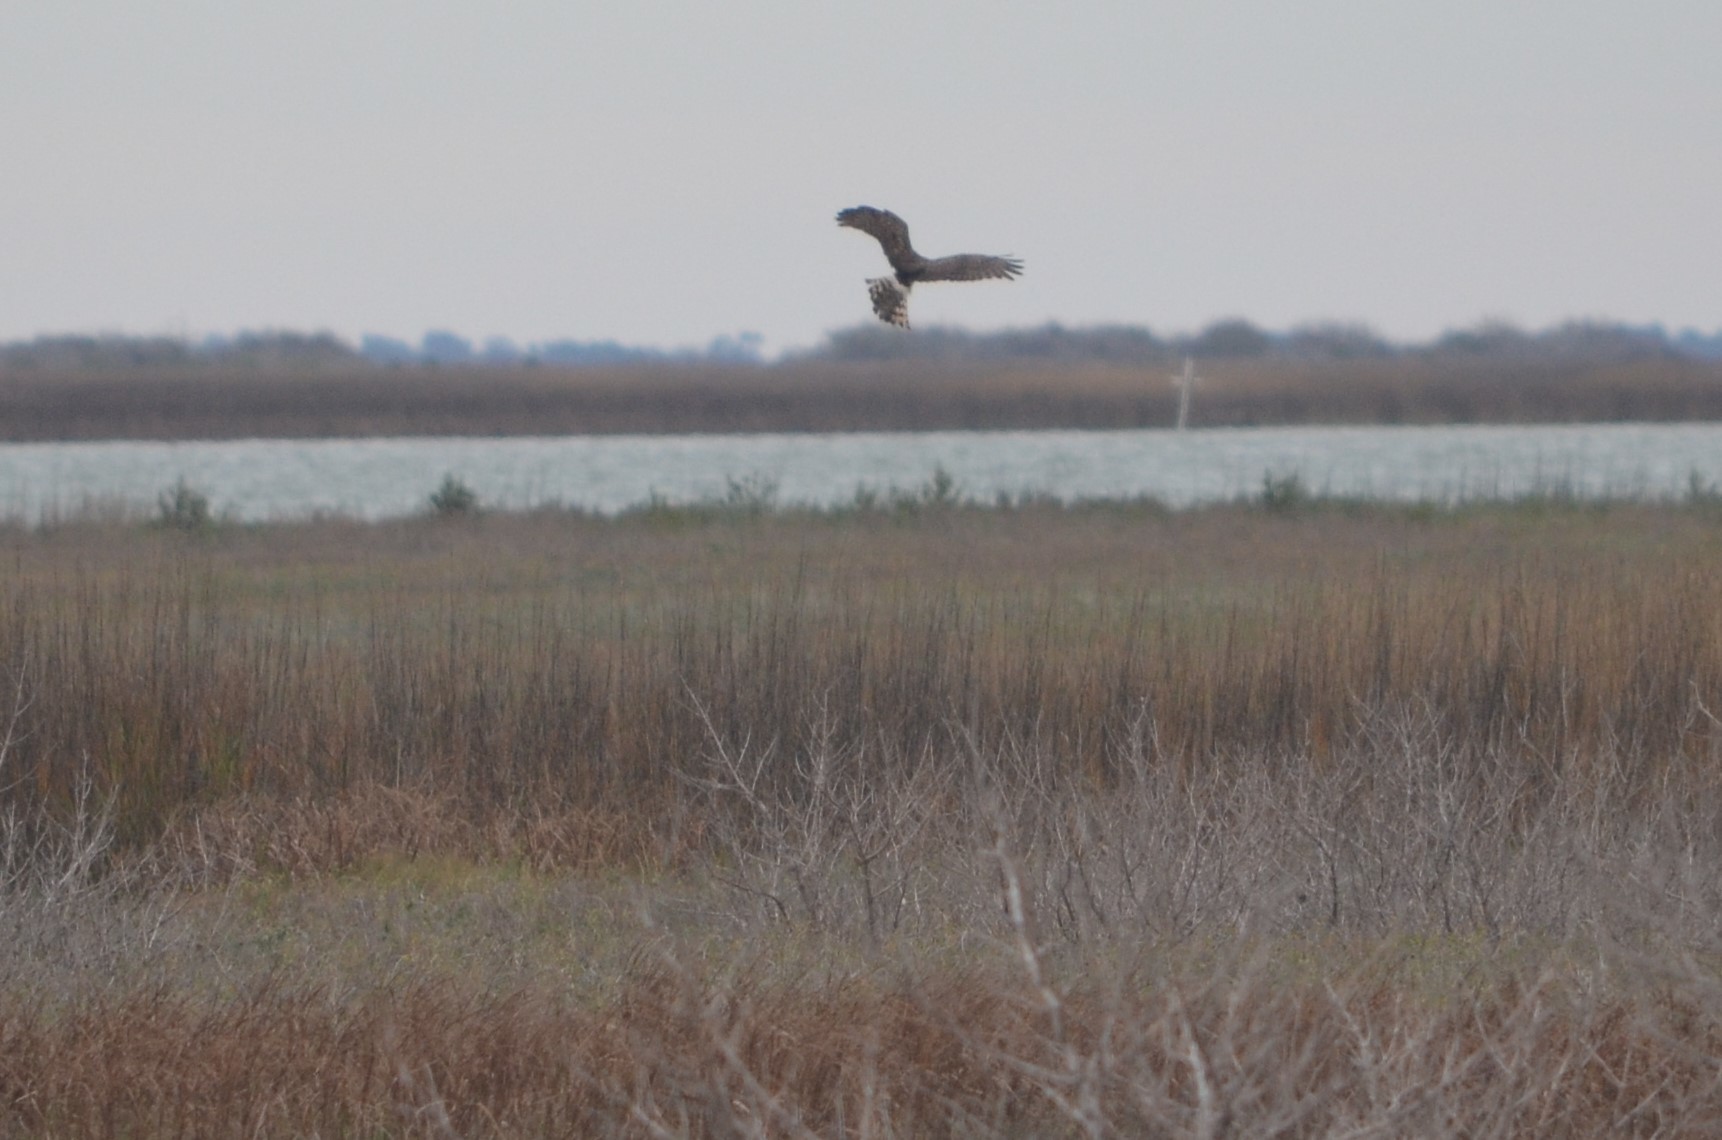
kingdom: Animalia
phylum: Chordata
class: Aves
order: Accipitriformes
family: Accipitridae
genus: Circus
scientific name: Circus cyaneus
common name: Hen harrier
